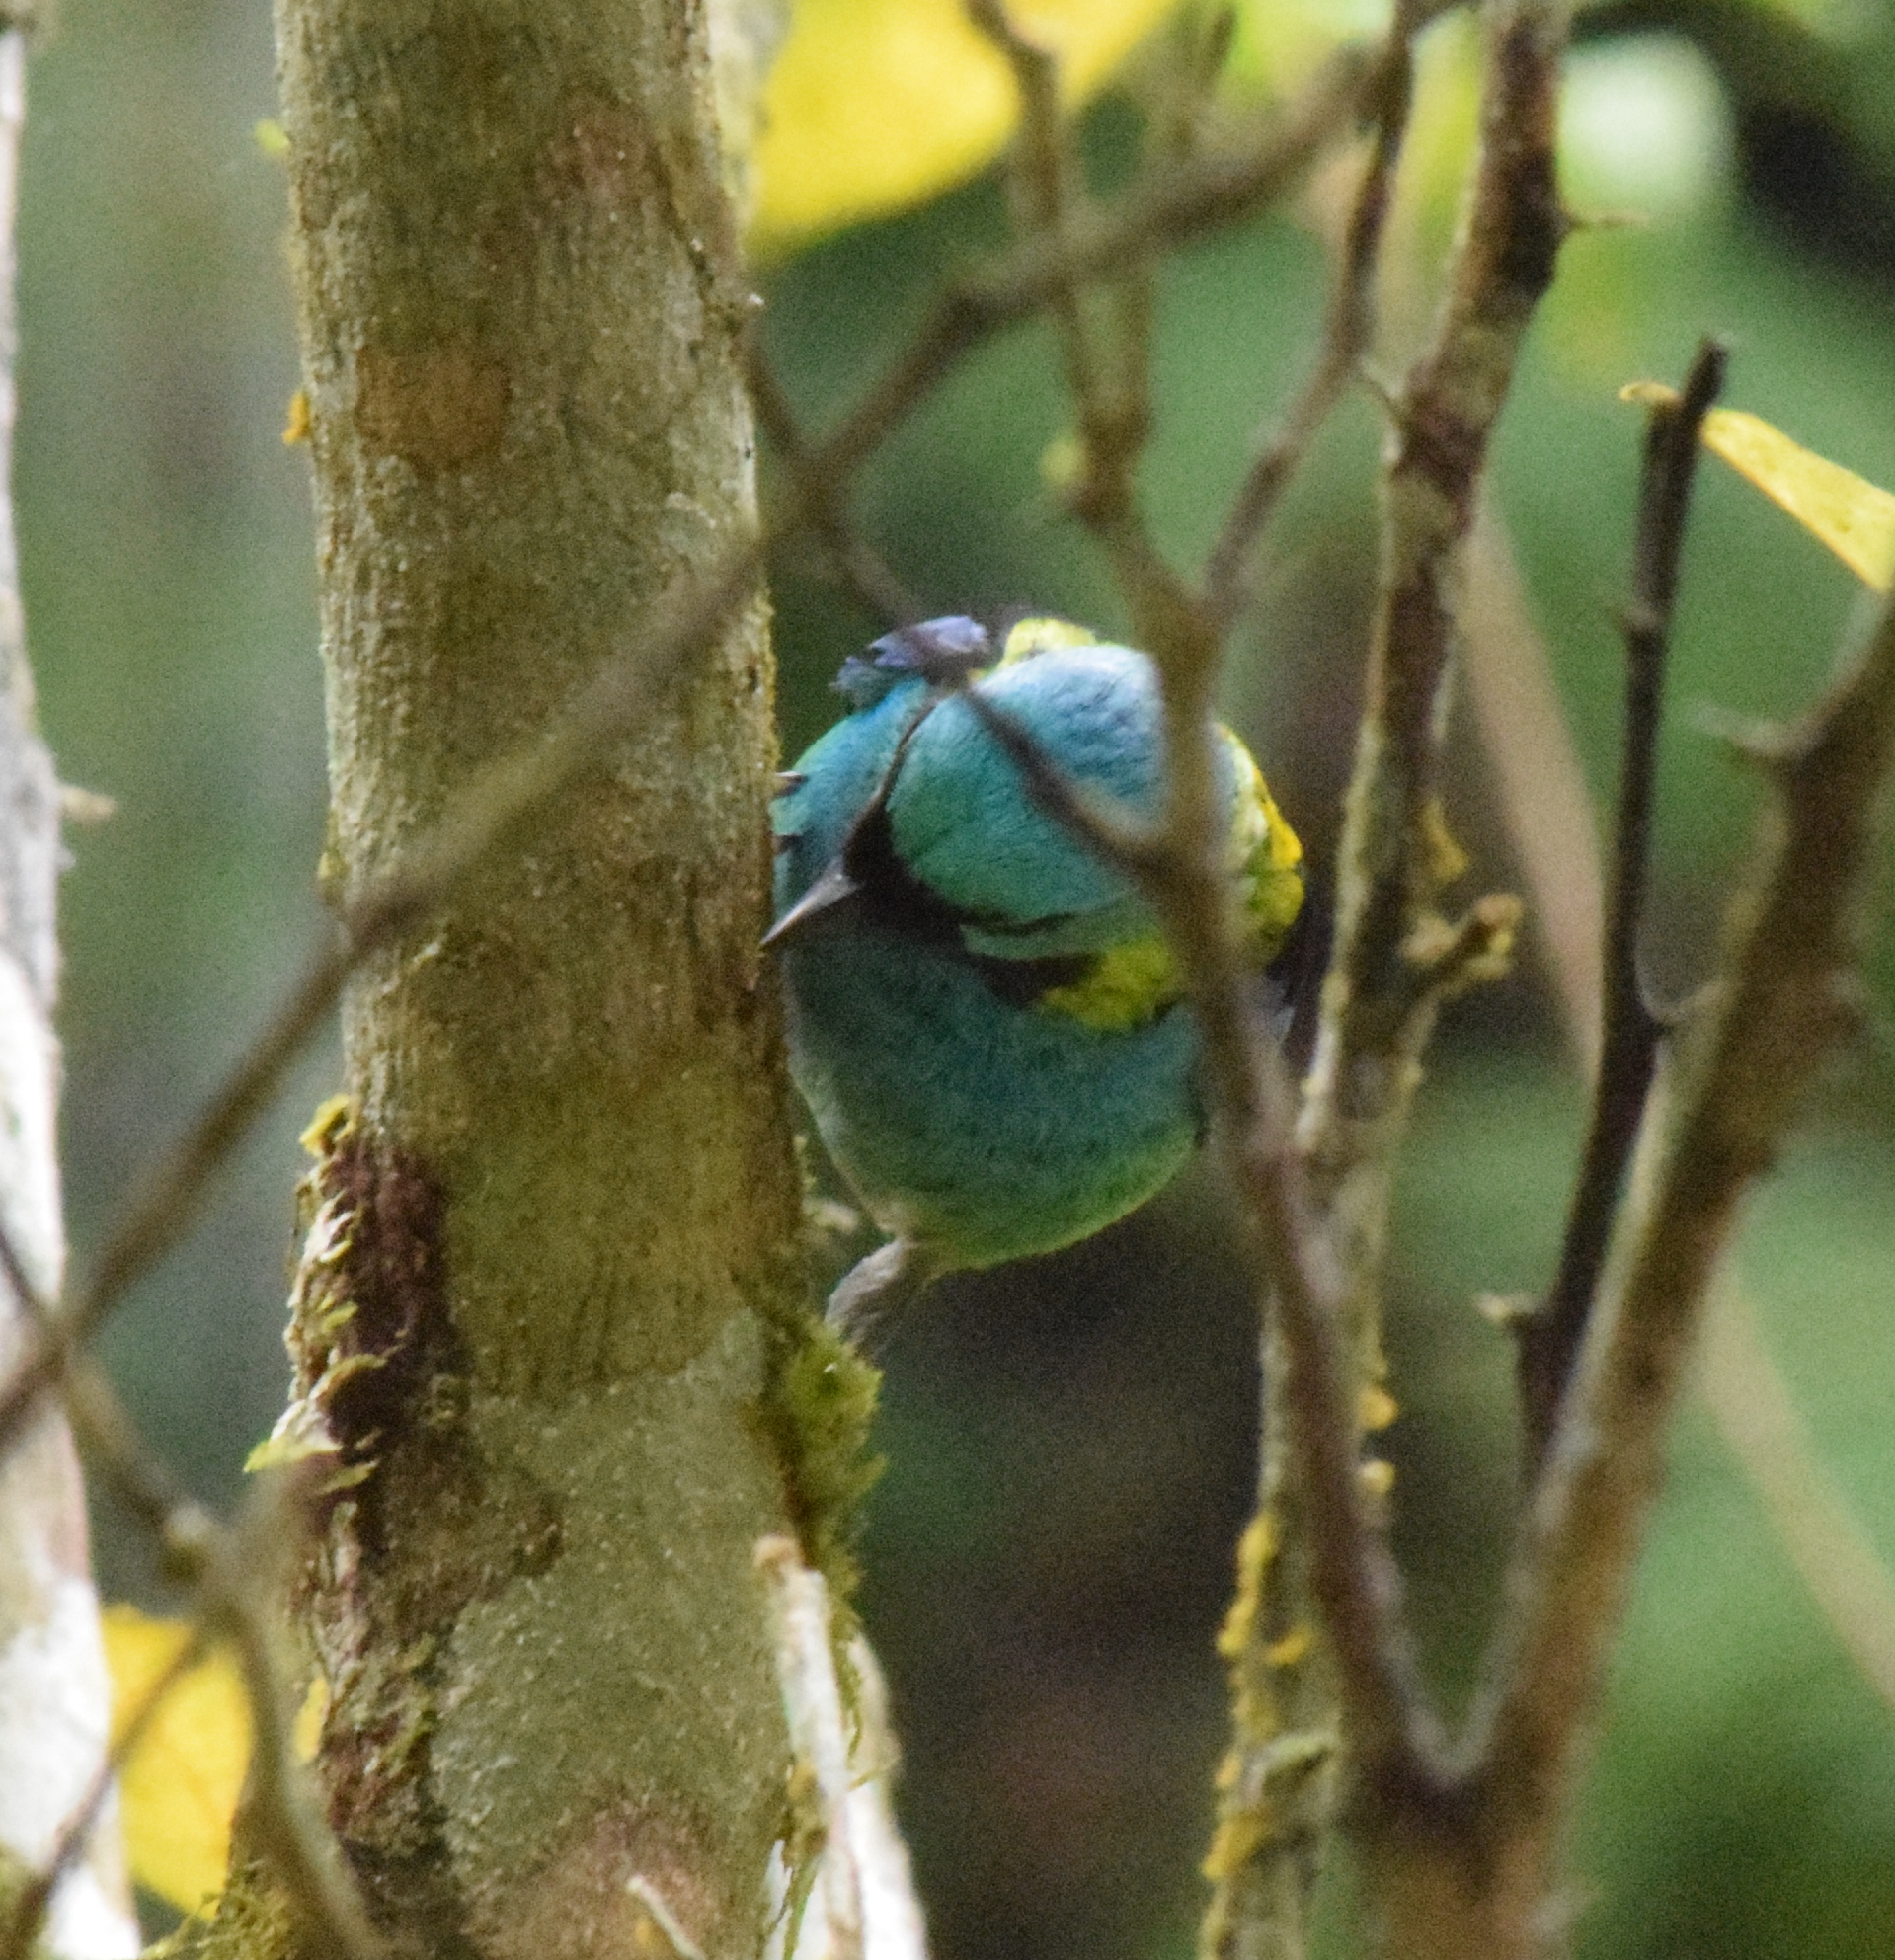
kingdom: Animalia
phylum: Chordata
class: Aves
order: Passeriformes
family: Thraupidae
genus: Tangara
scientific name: Tangara seledon
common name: Green-headed tanager
